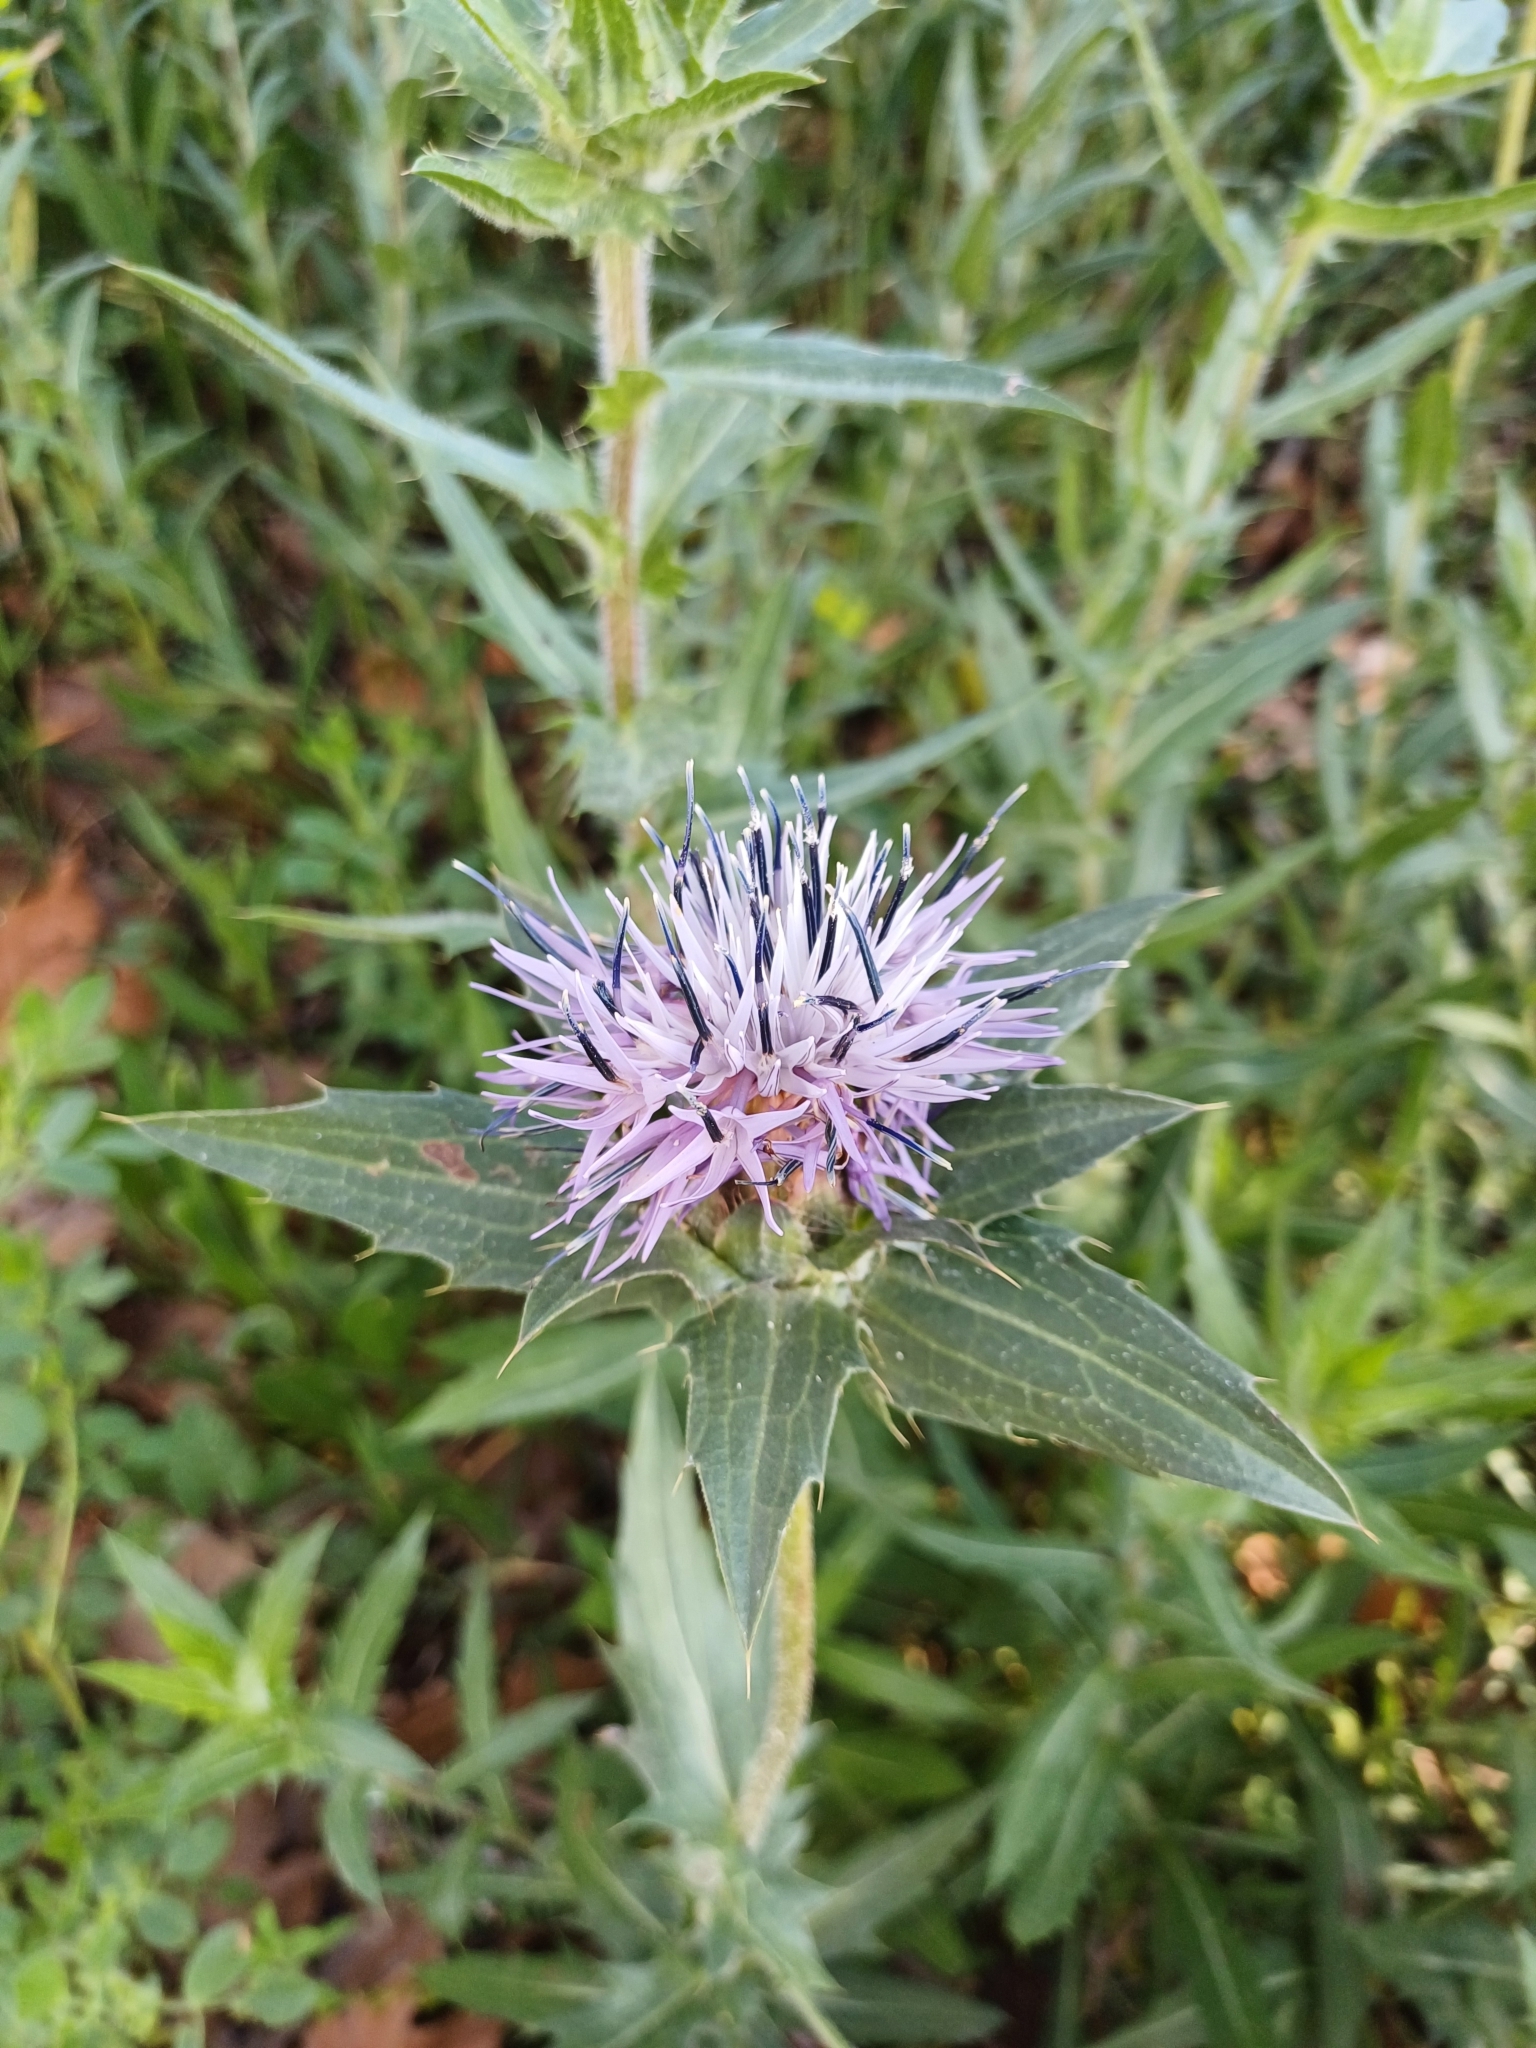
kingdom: Plantae
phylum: Tracheophyta
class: Magnoliopsida
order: Asterales
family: Asteraceae
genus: Carduncellus
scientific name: Carduncellus caeruleus
